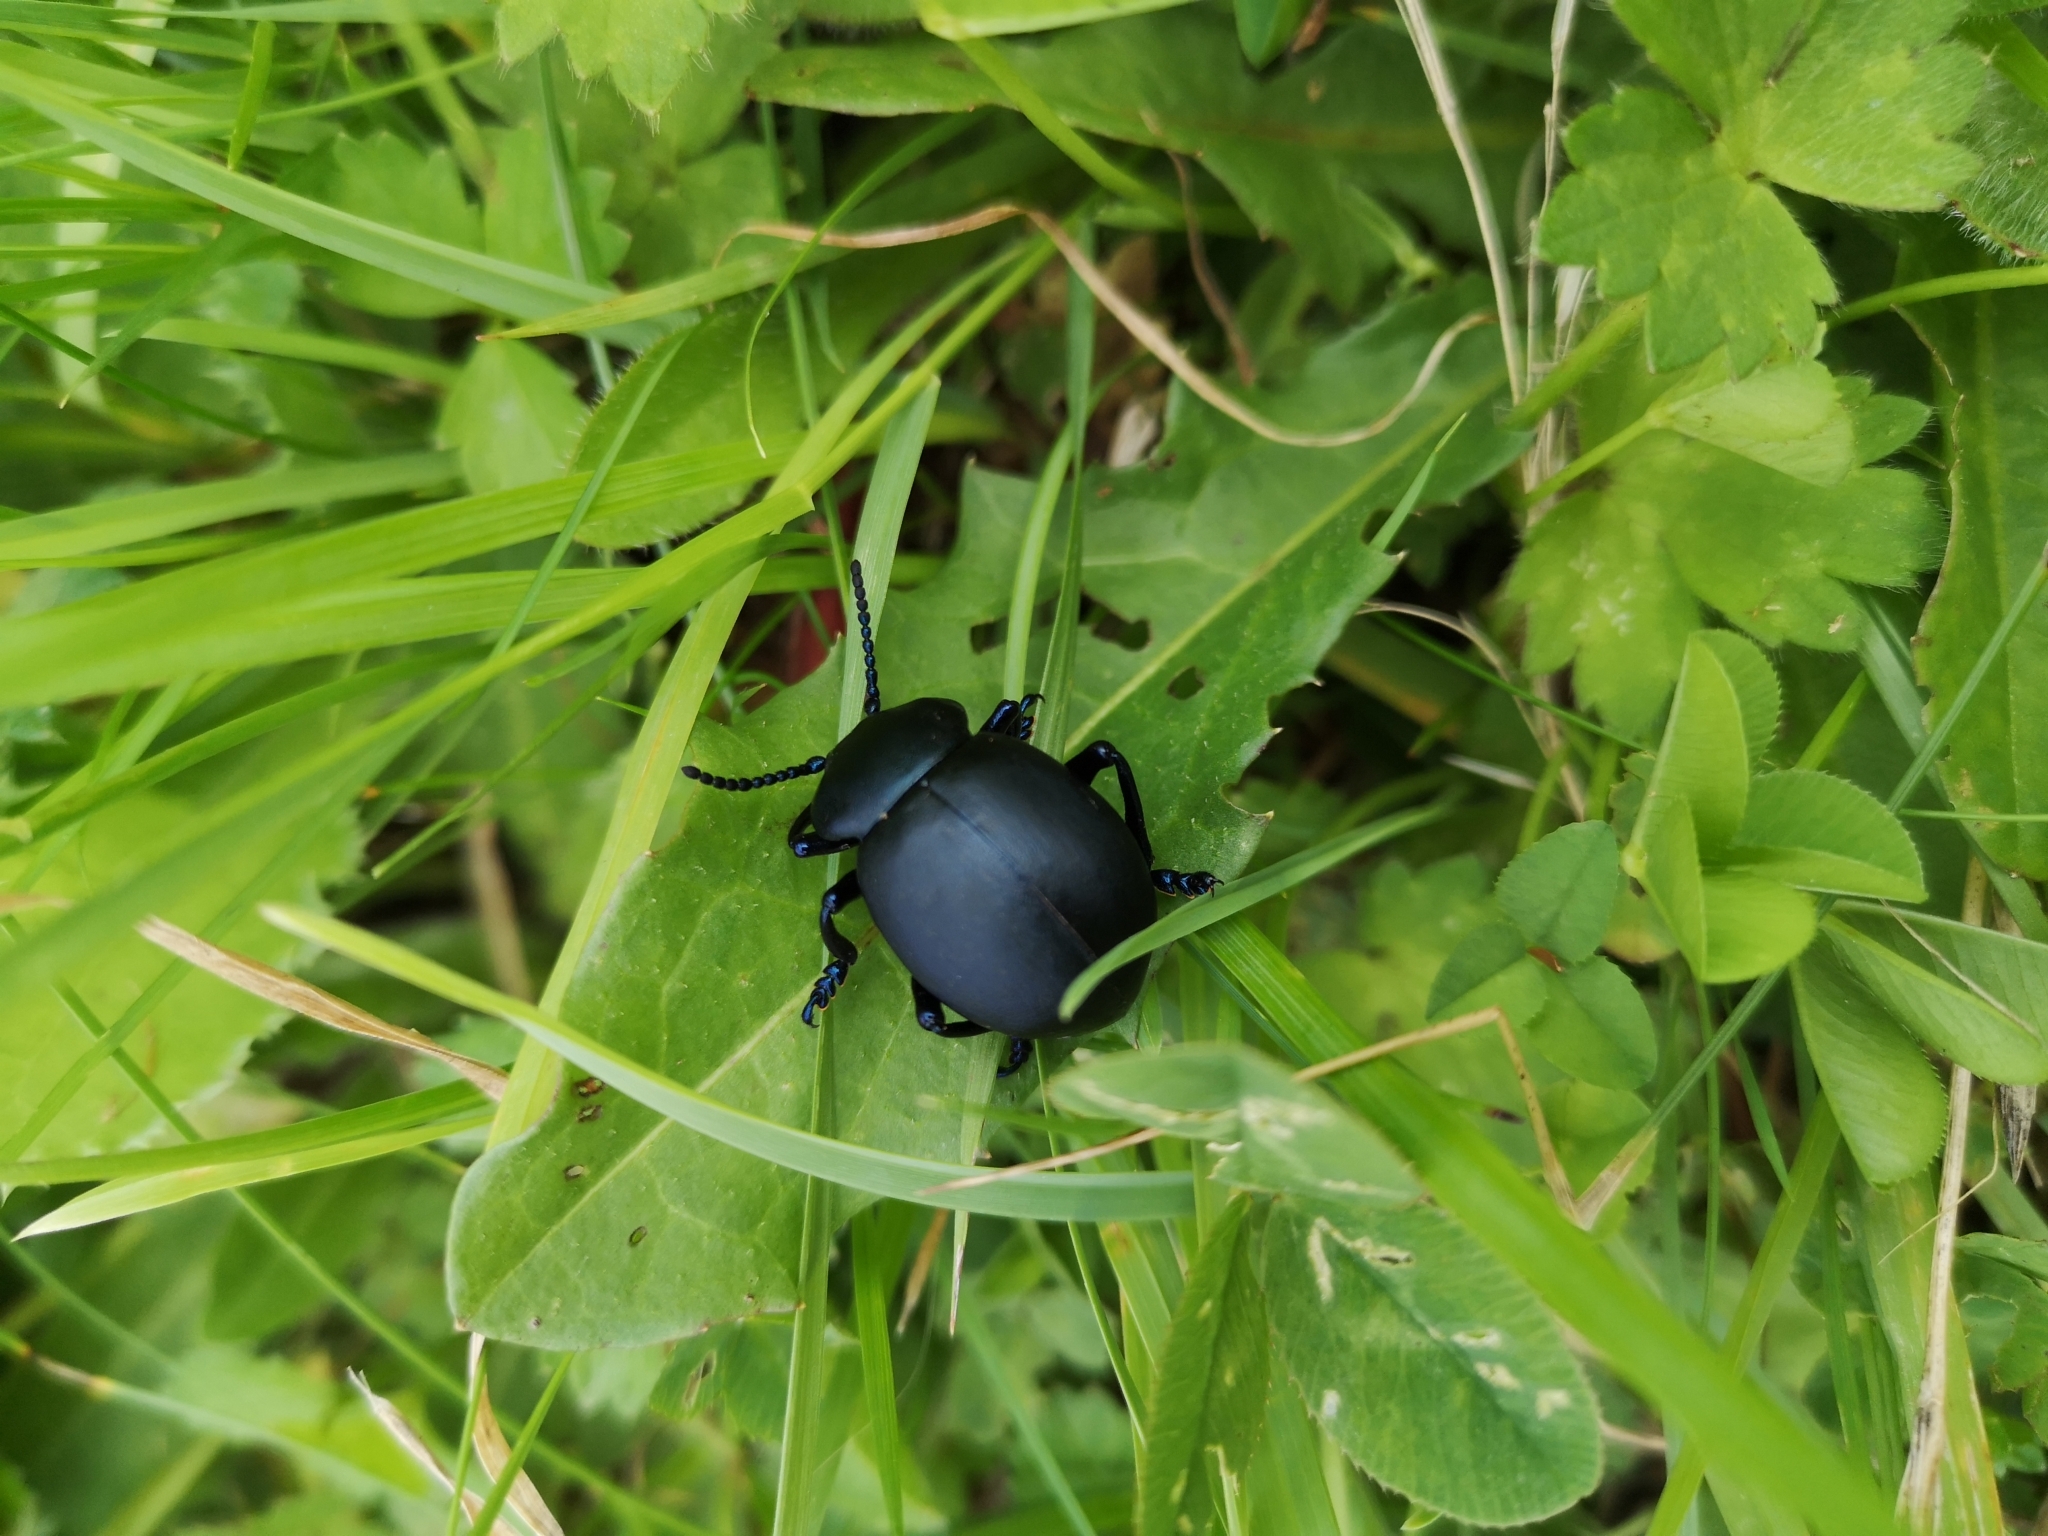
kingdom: Animalia
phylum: Arthropoda
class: Insecta
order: Coleoptera
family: Chrysomelidae
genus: Timarcha
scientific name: Timarcha tenebricosa
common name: Bloody-nosed beetle
